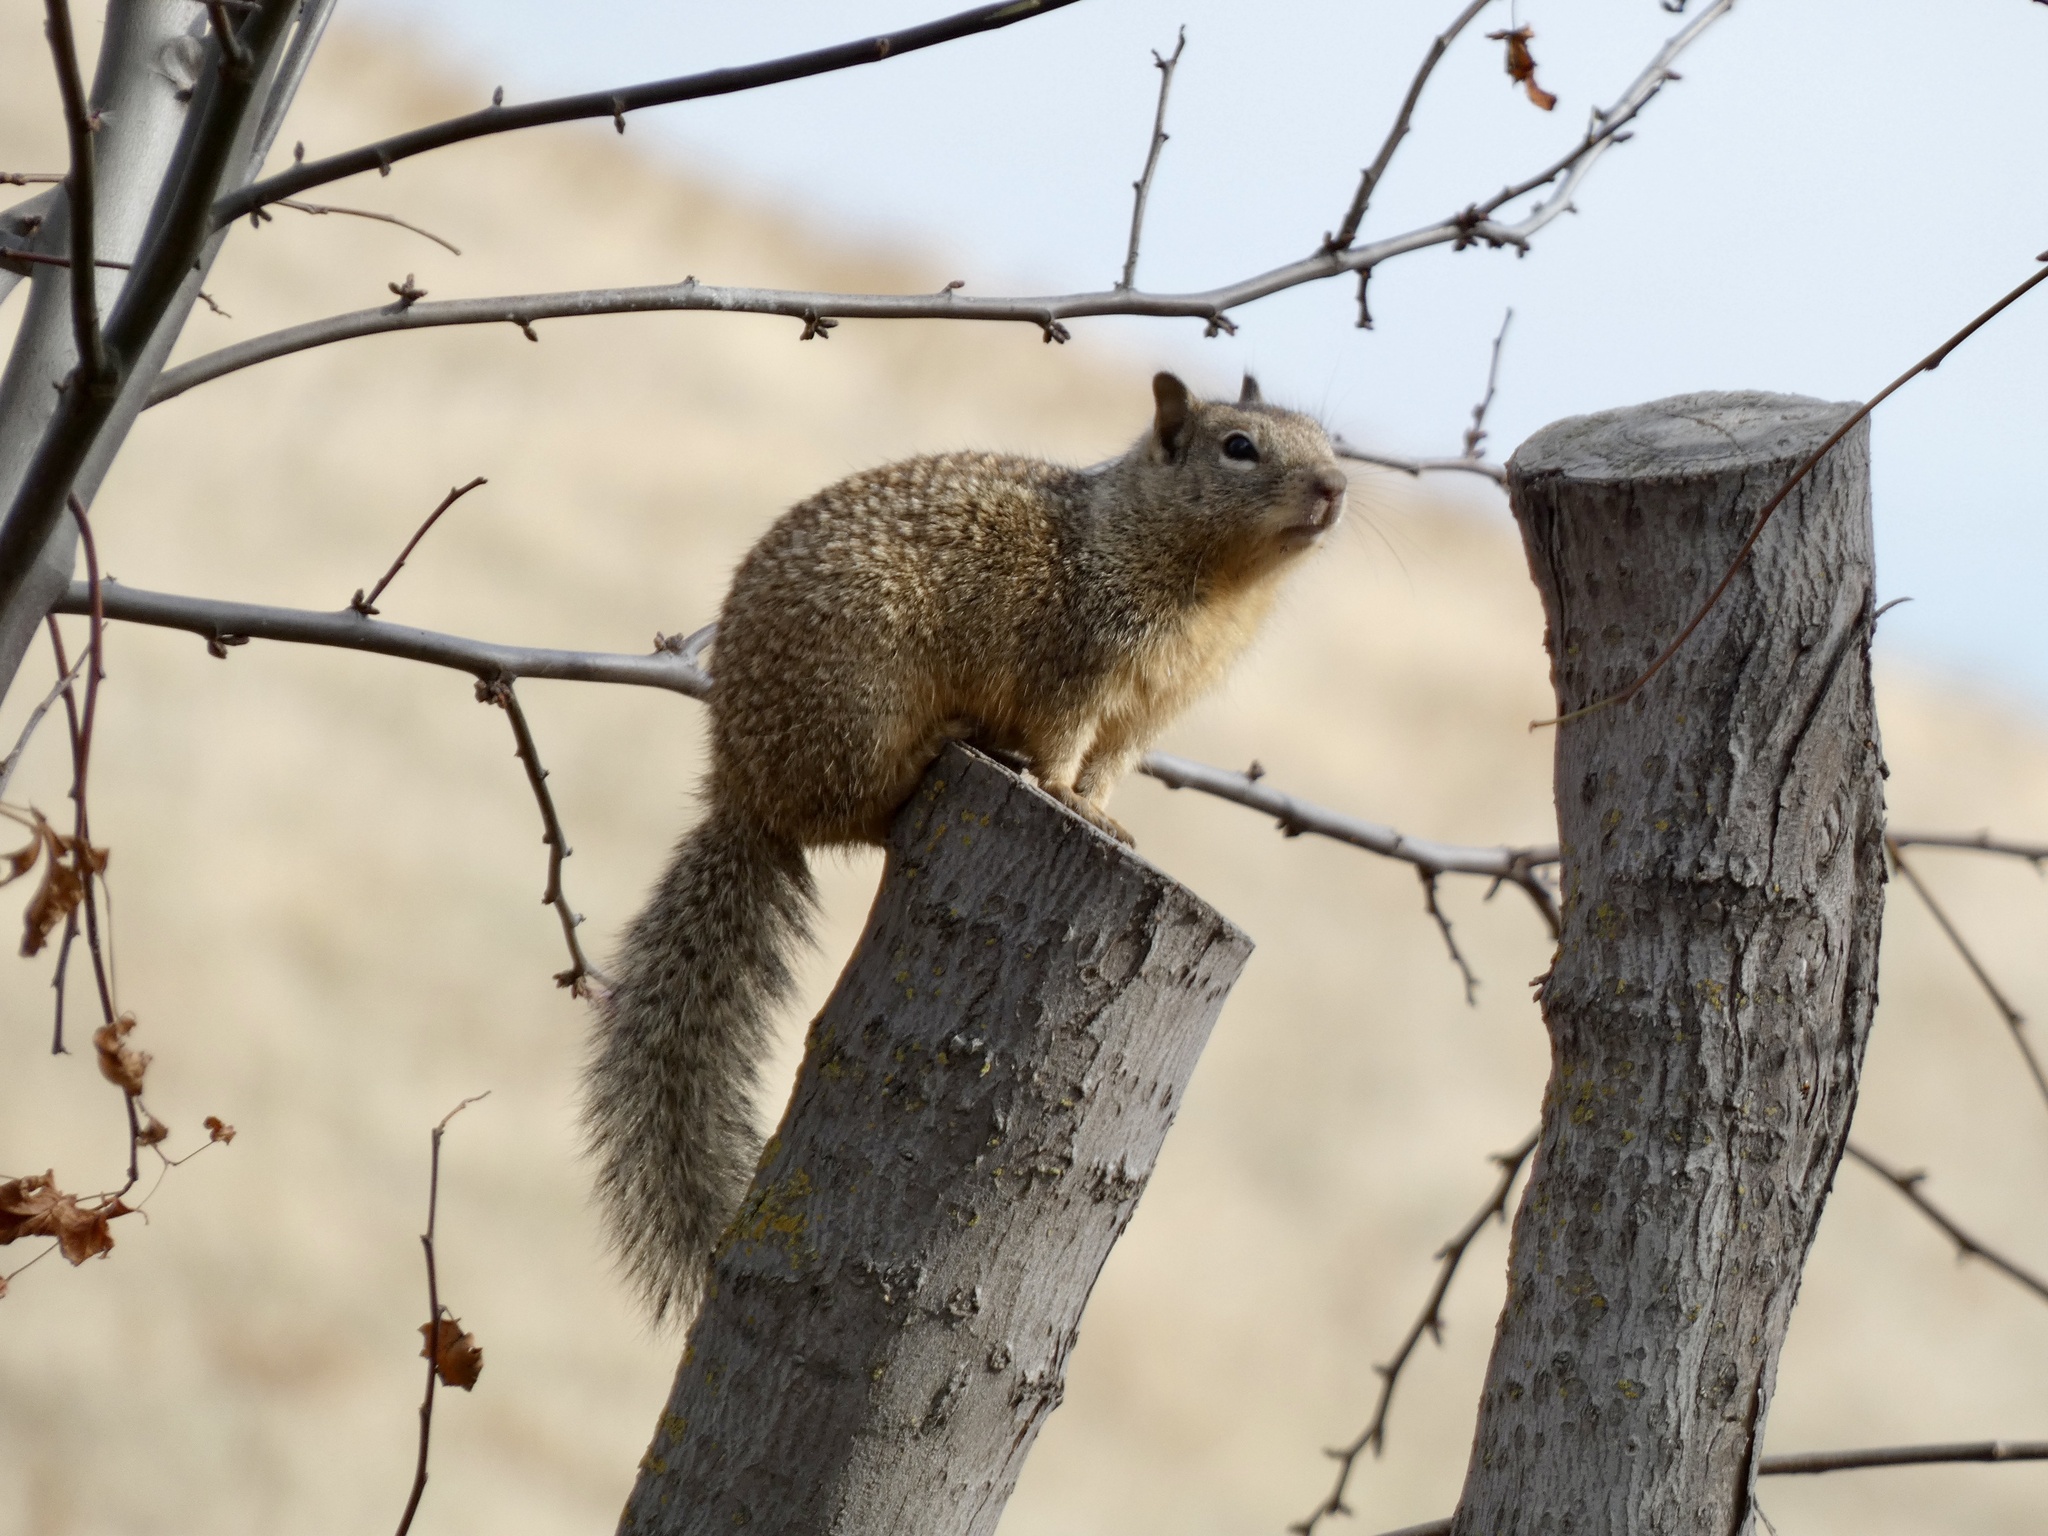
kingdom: Animalia
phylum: Chordata
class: Mammalia
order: Rodentia
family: Sciuridae
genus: Otospermophilus
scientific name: Otospermophilus beecheyi
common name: California ground squirrel
